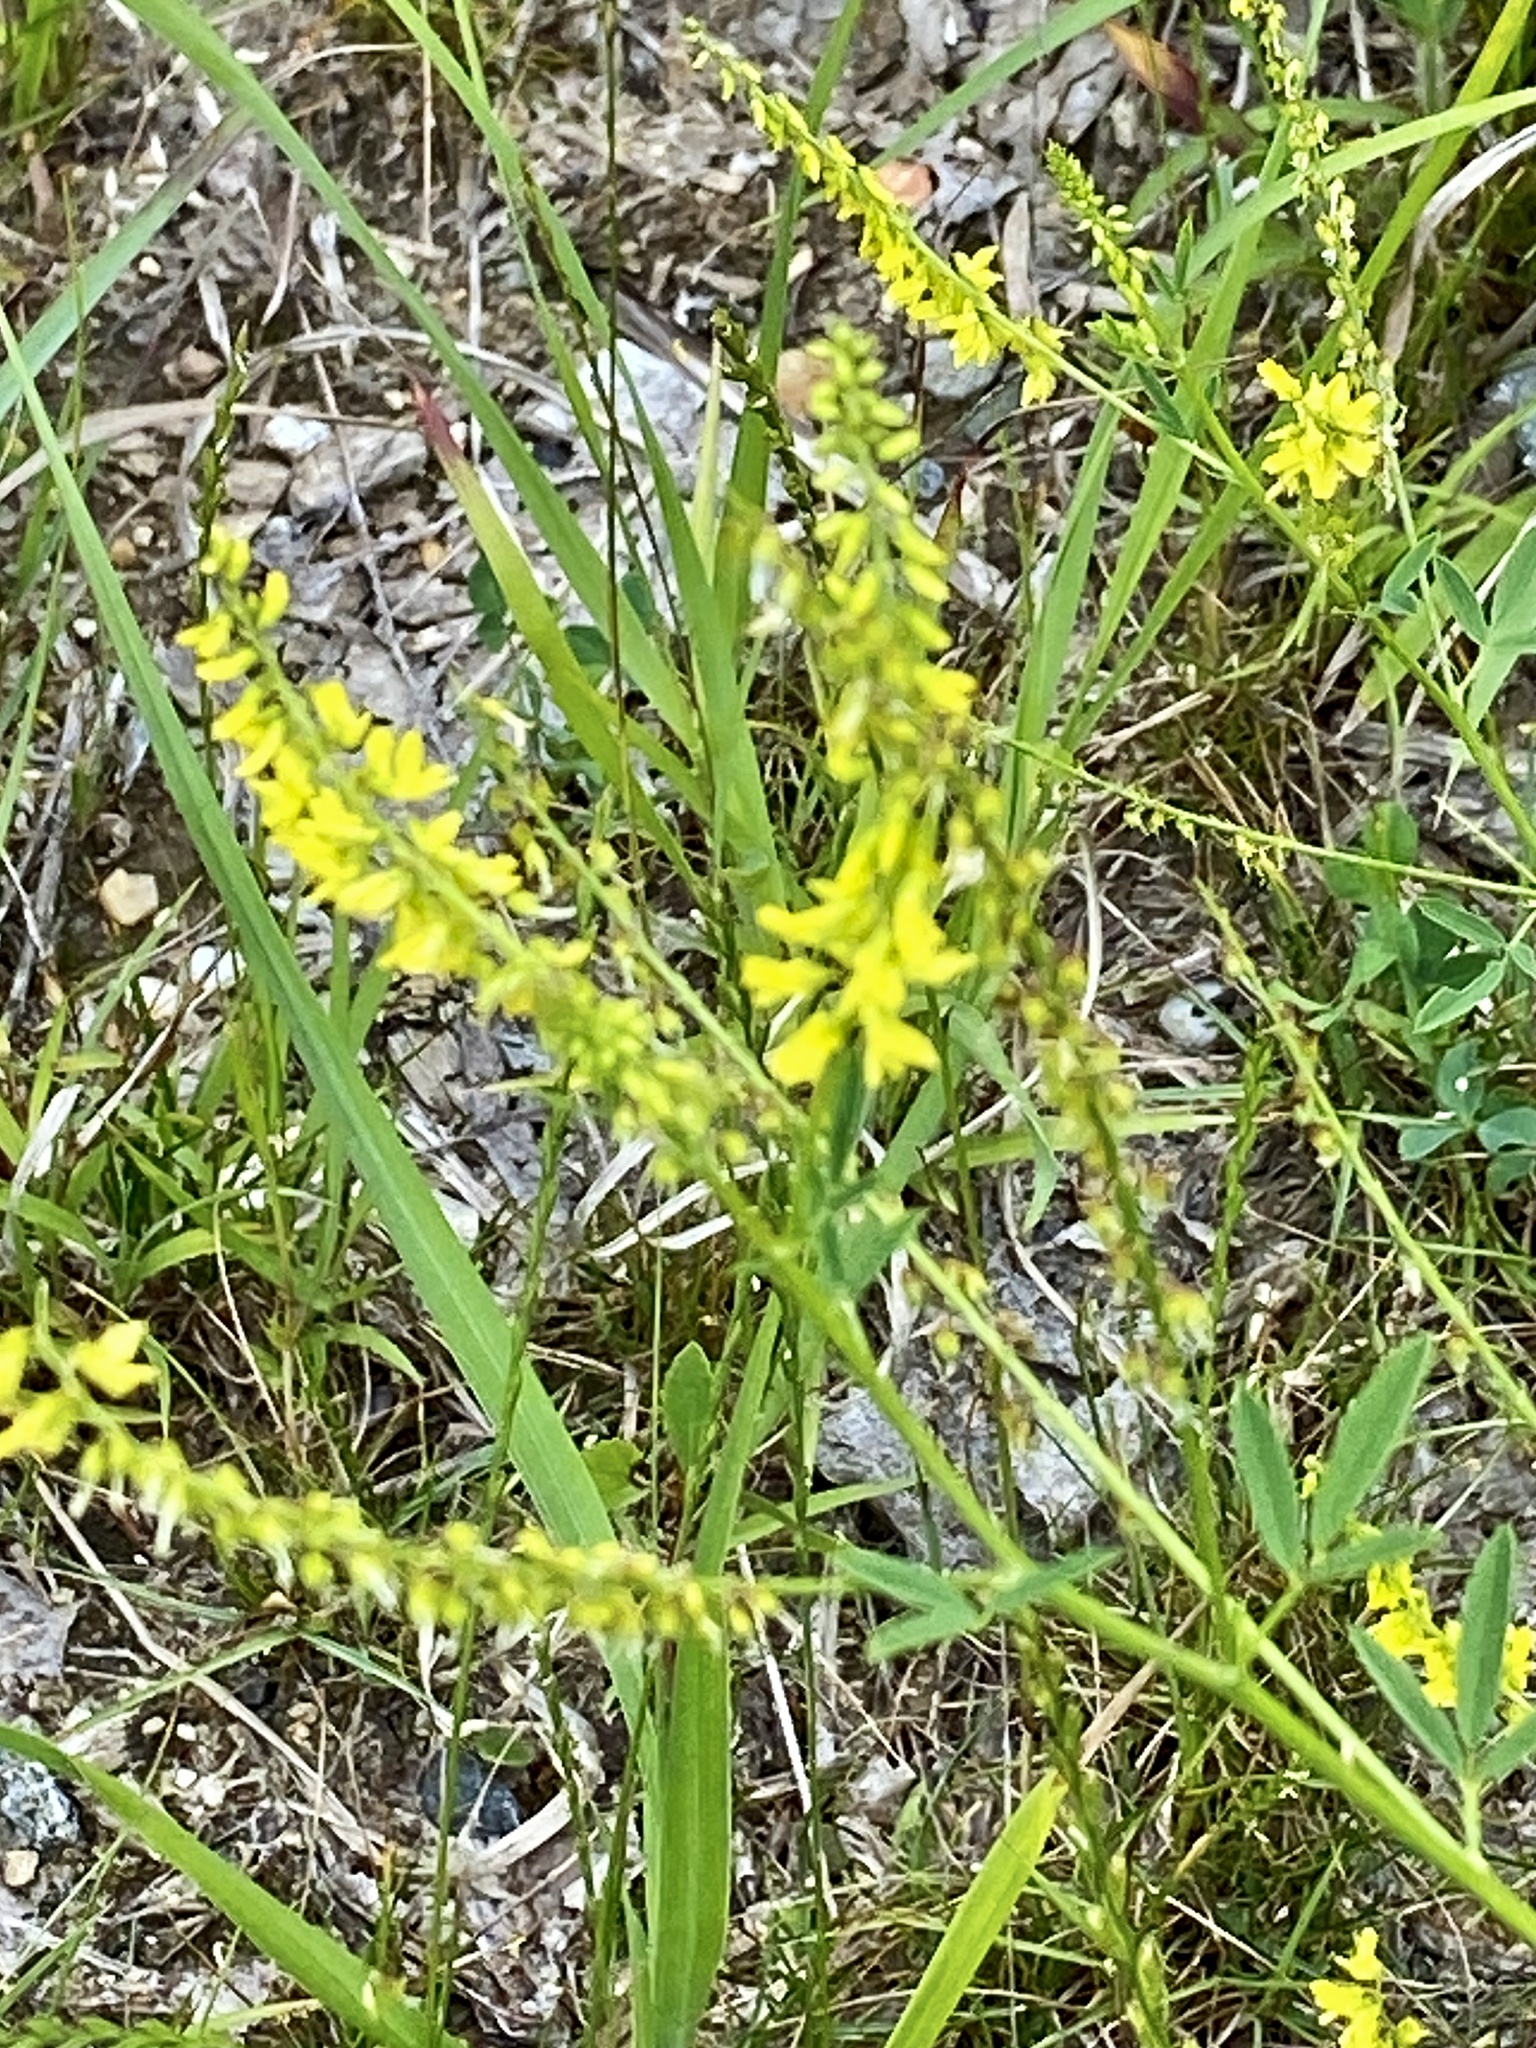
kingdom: Plantae
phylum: Tracheophyta
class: Magnoliopsida
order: Fabales
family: Fabaceae
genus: Melilotus
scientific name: Melilotus officinalis
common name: Sweetclover
